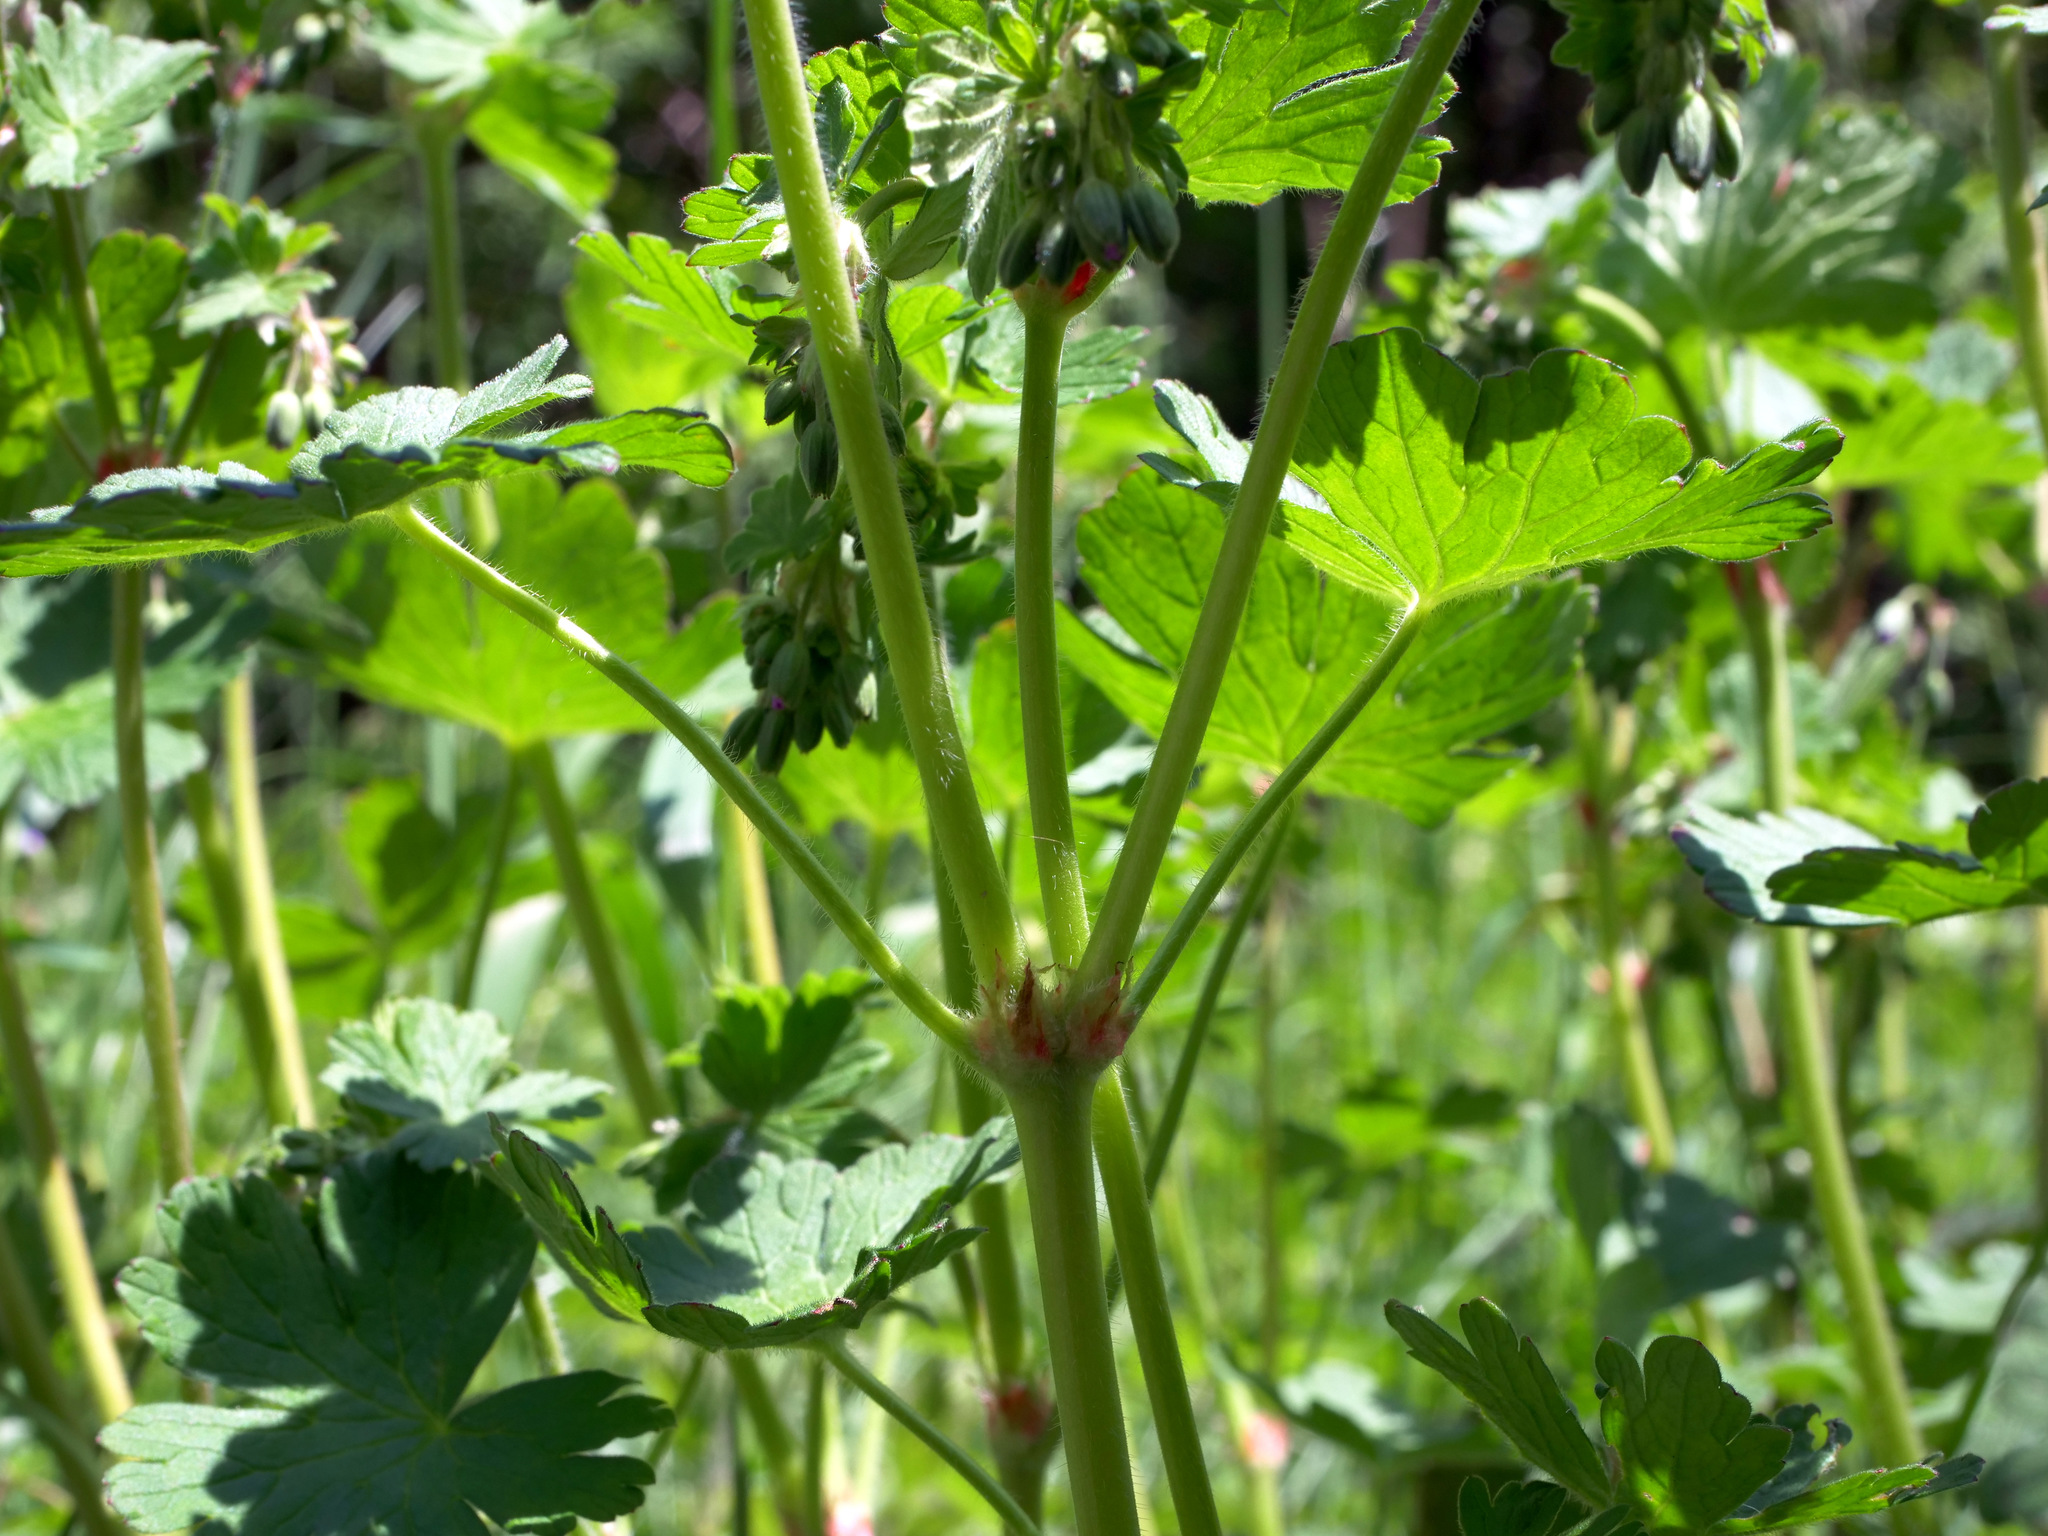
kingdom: Plantae
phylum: Tracheophyta
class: Magnoliopsida
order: Geraniales
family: Geraniaceae
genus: Geranium
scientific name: Geranium pyrenaicum
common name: Hedgerow crane's-bill
